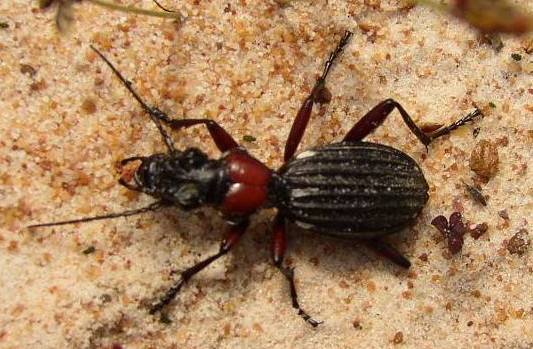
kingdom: Animalia
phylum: Arthropoda
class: Insecta
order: Coleoptera
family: Carabidae
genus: Anthia
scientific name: Anthia decemguttata
